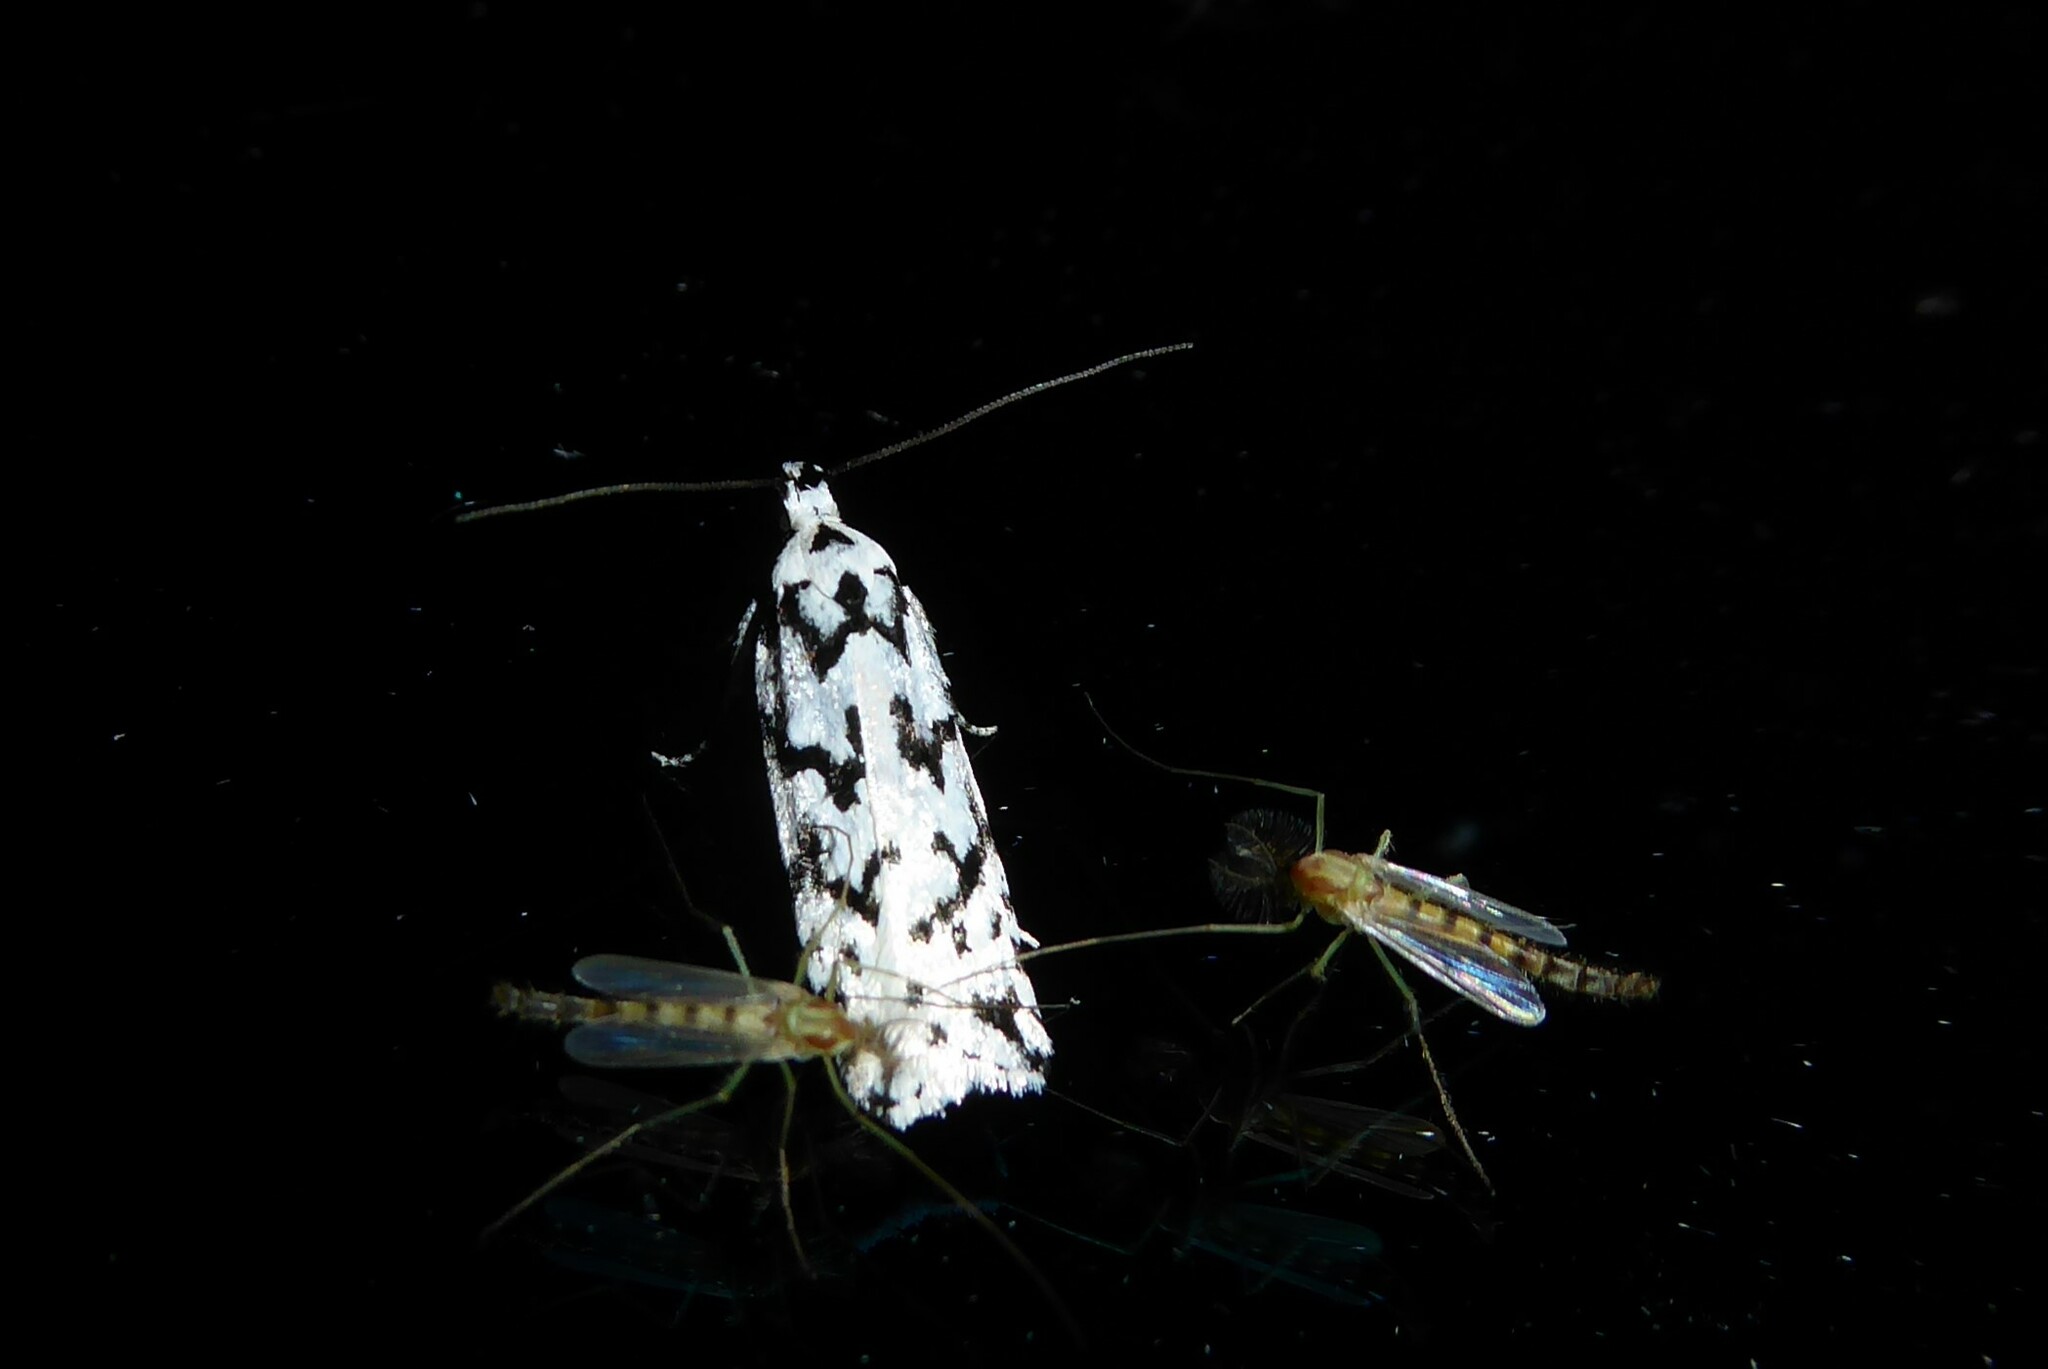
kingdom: Animalia
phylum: Arthropoda
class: Insecta
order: Lepidoptera
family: Oecophoridae
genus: Izatha
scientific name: Izatha katadiktya
